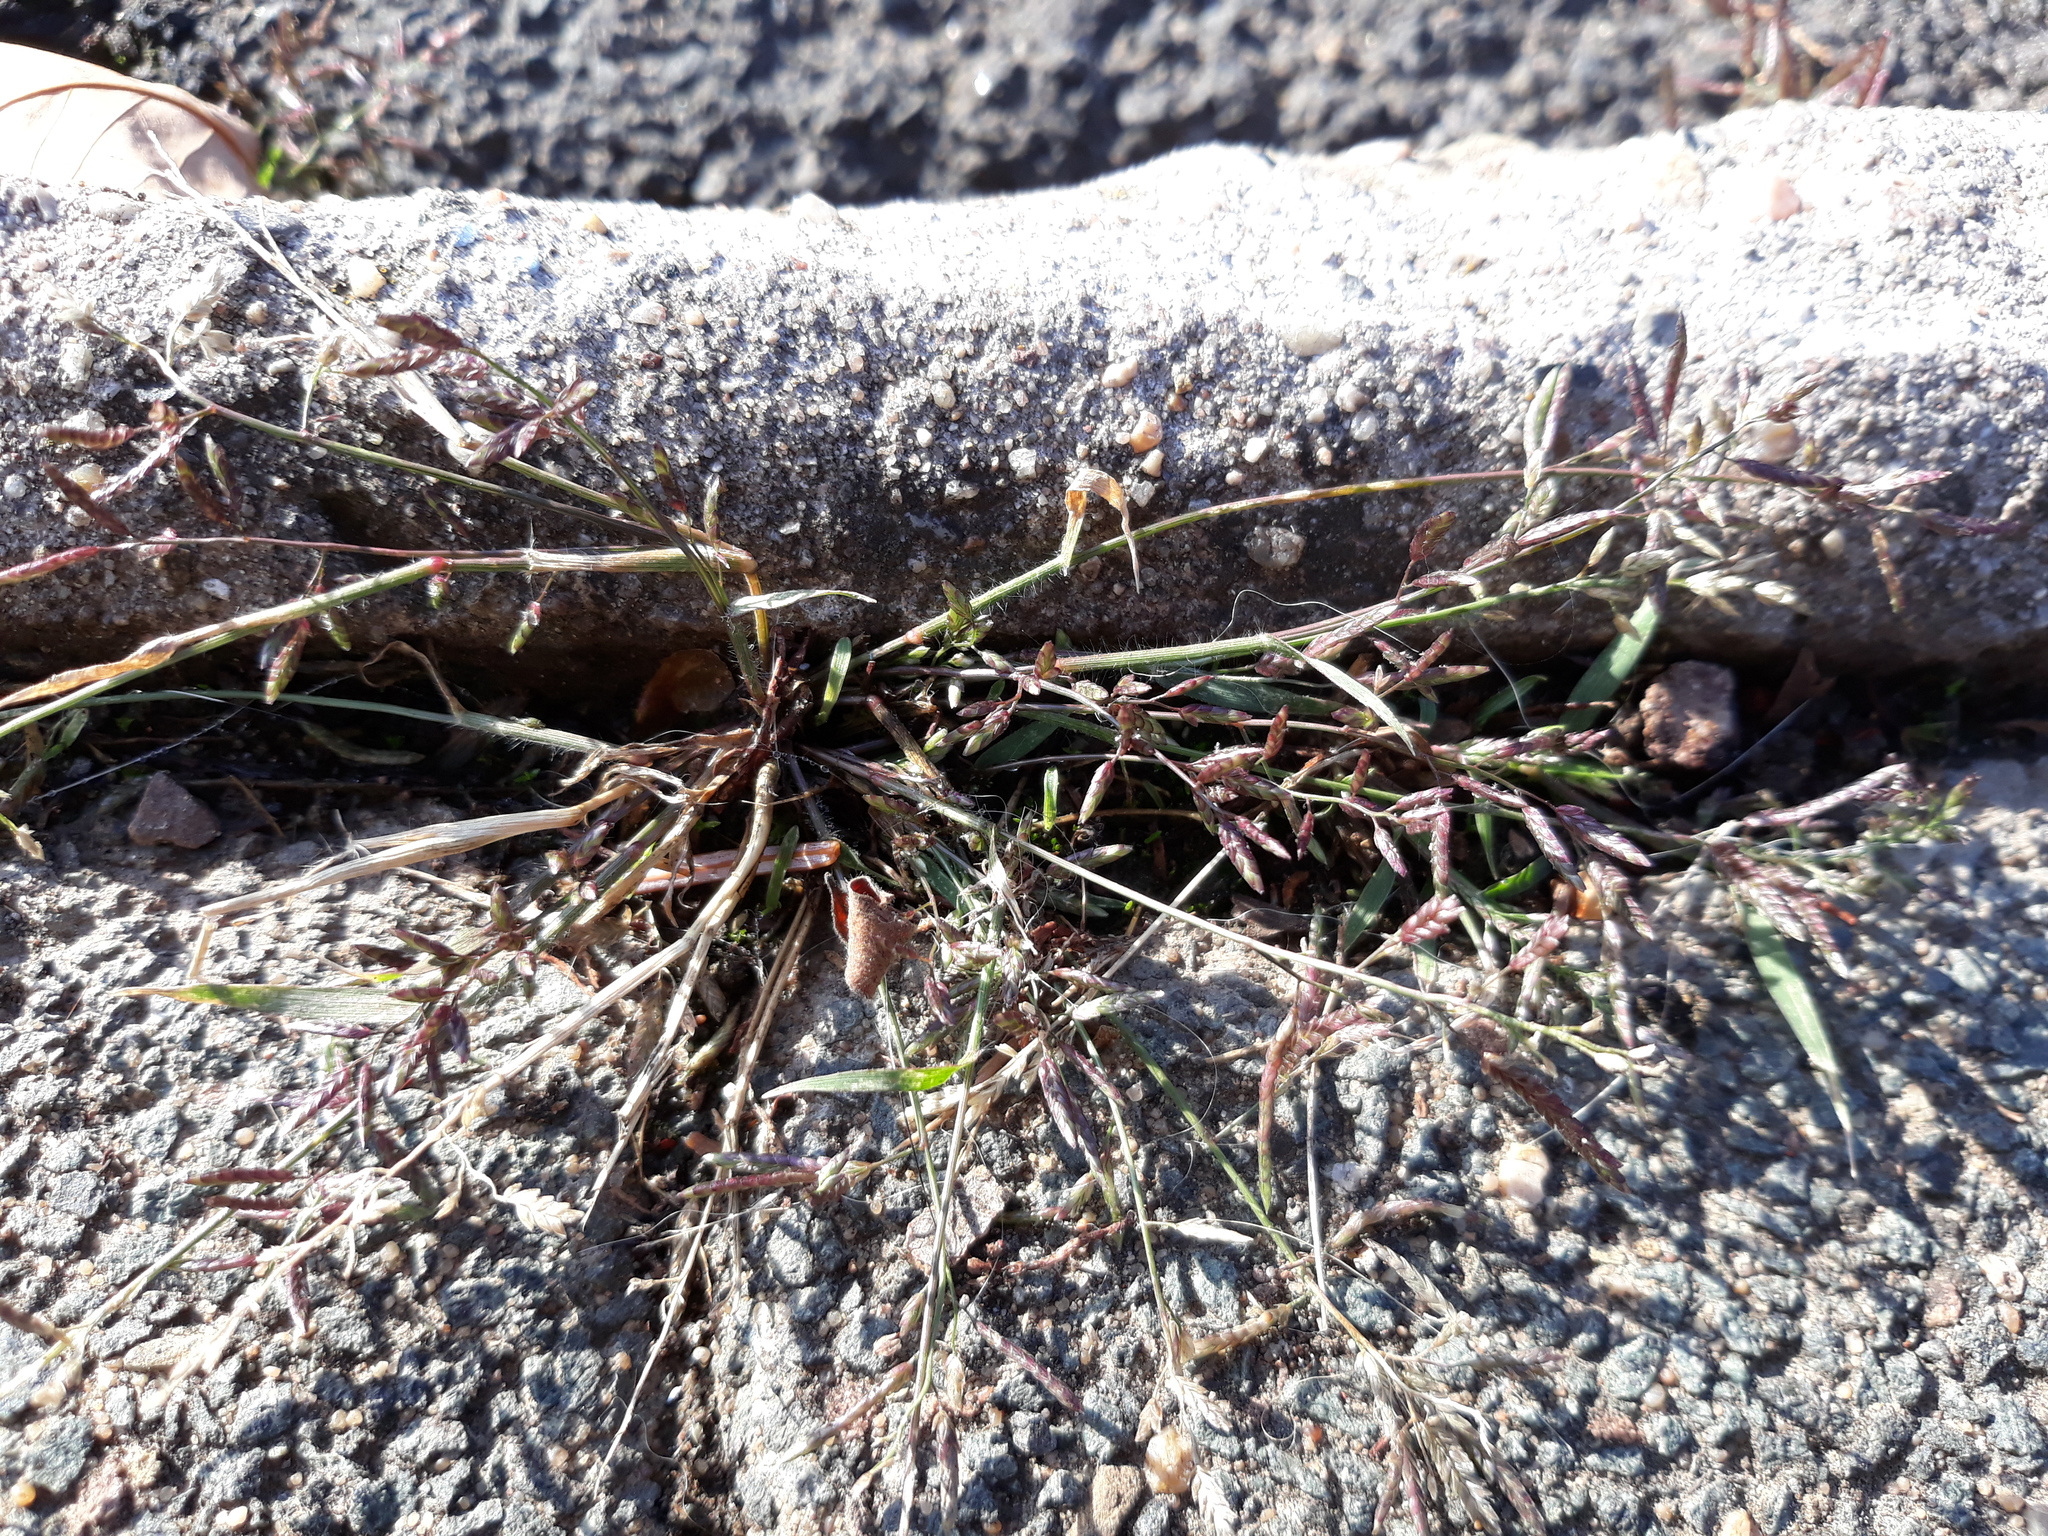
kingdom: Plantae
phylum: Tracheophyta
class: Liliopsida
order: Poales
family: Poaceae
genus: Eragrostis
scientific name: Eragrostis minor
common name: Small love-grass
